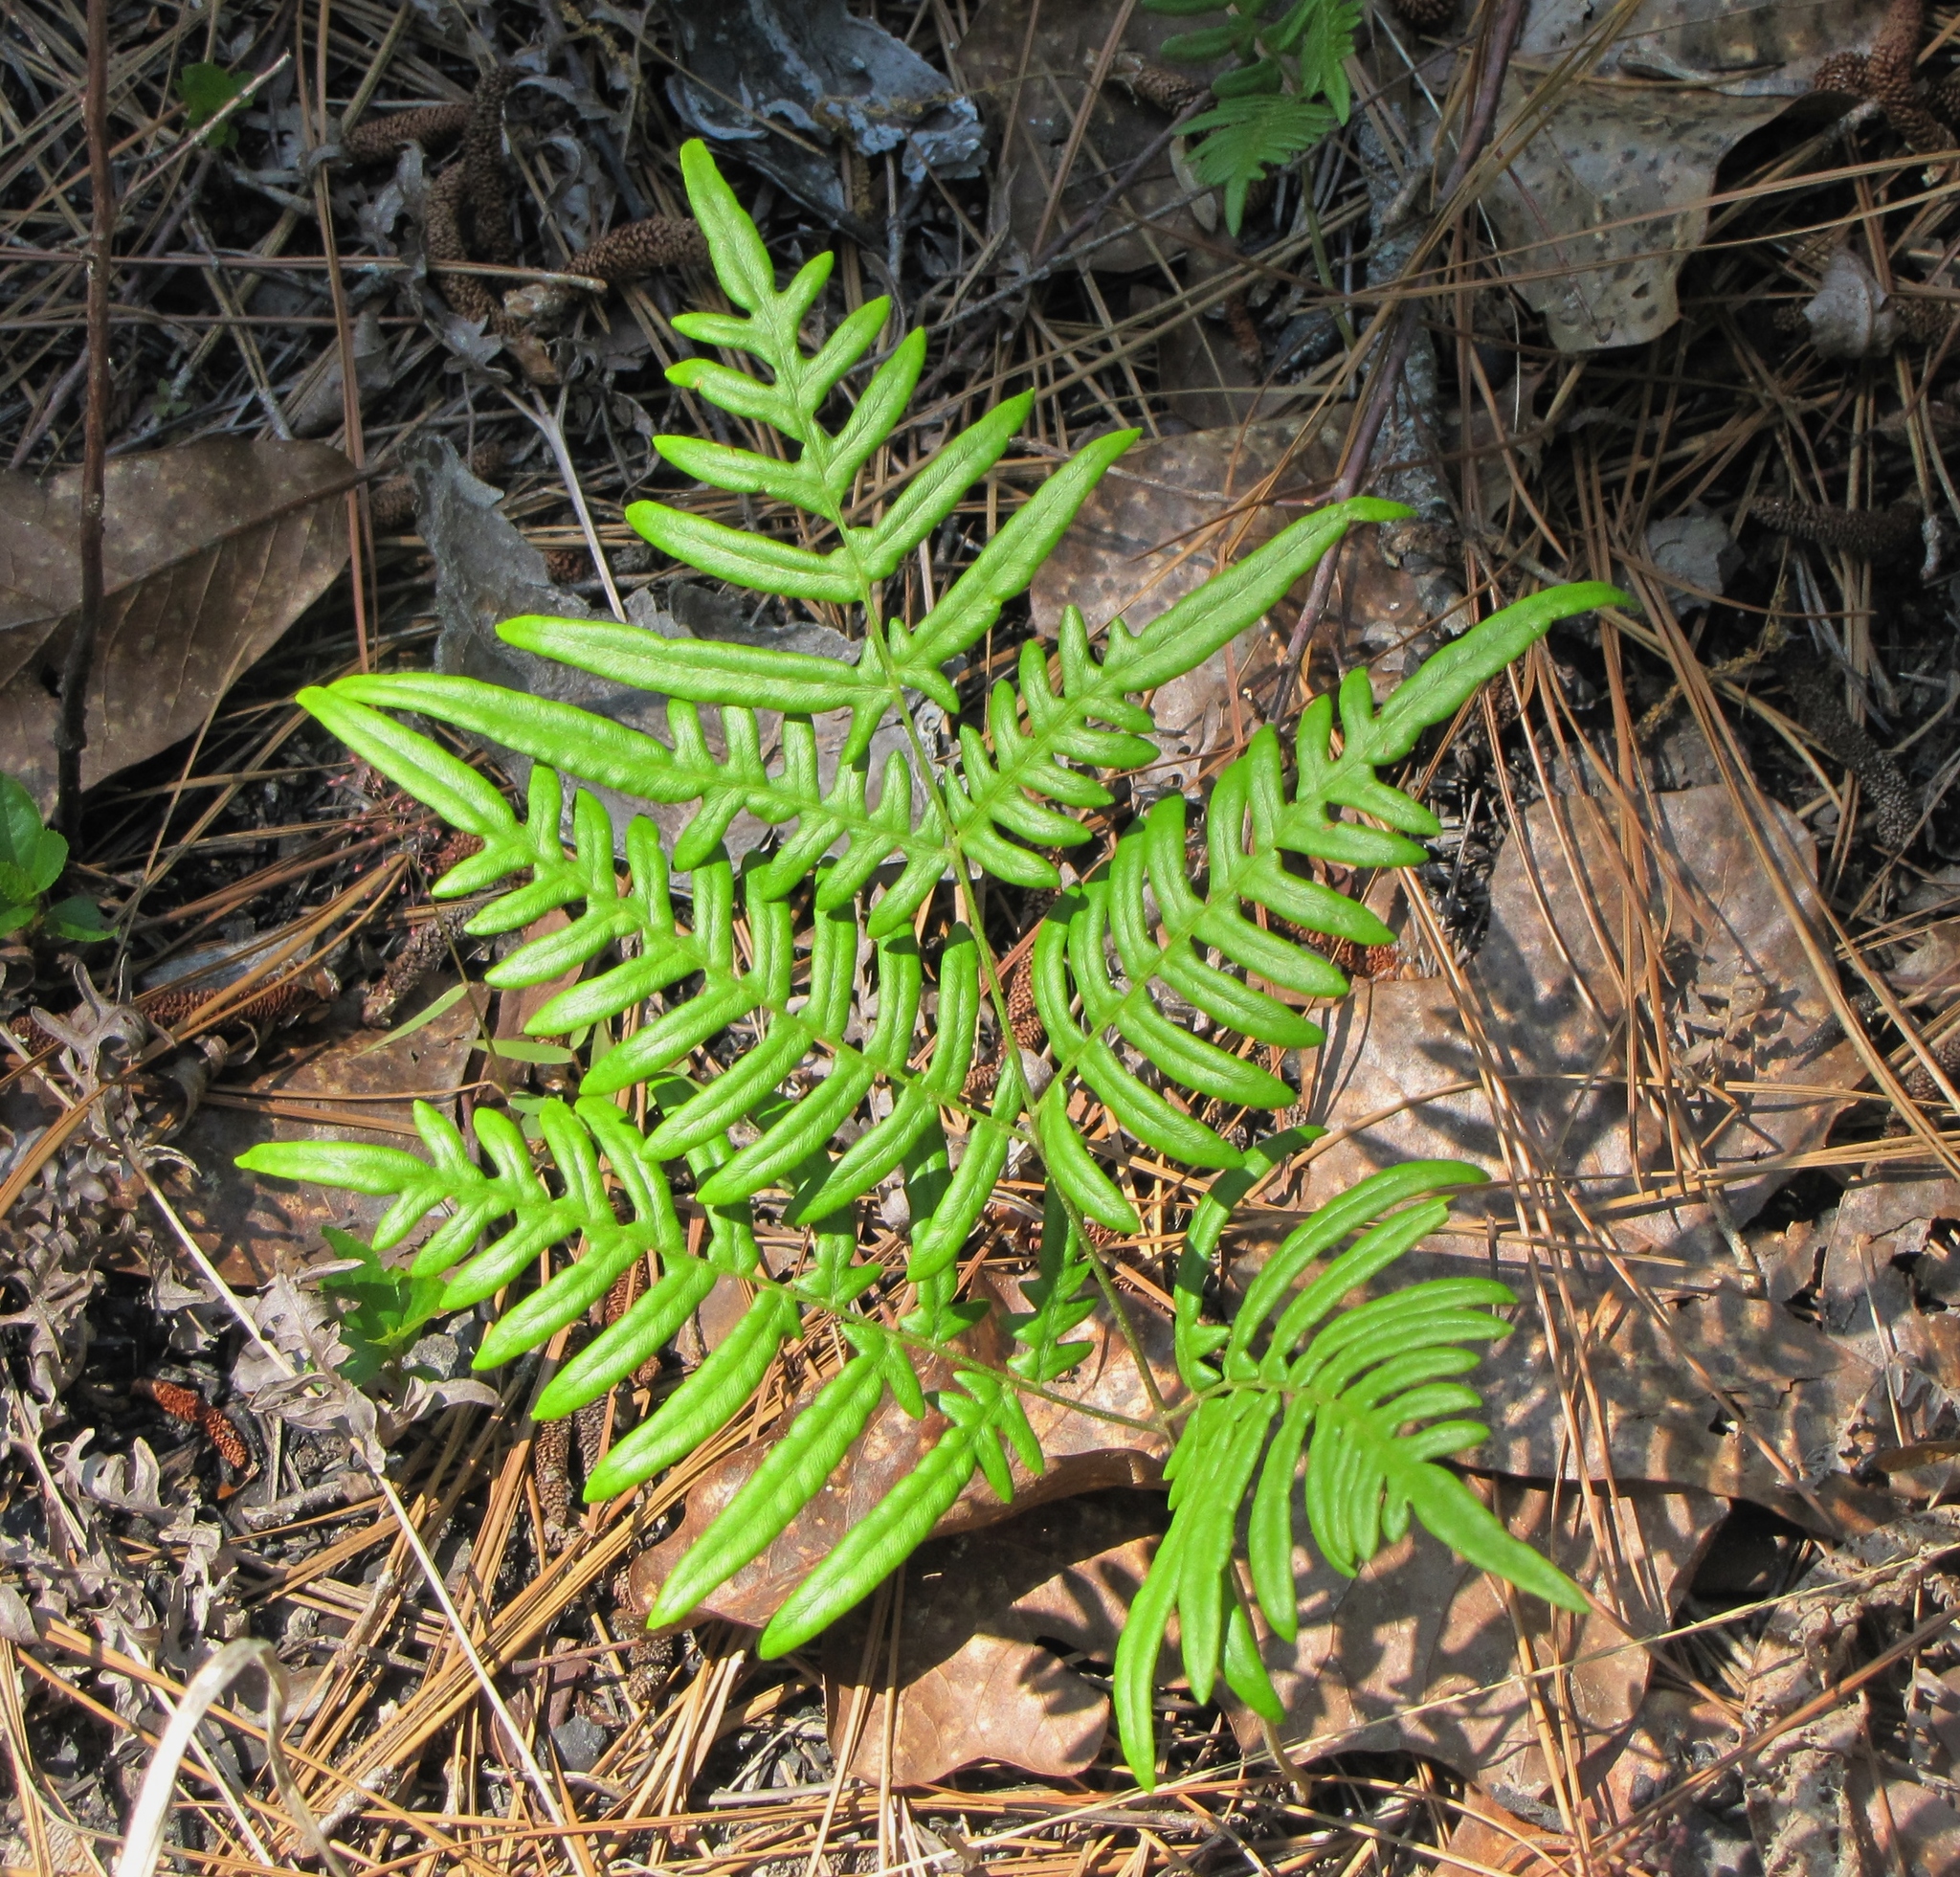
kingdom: Plantae
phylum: Tracheophyta
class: Polypodiopsida
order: Polypodiales
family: Dennstaedtiaceae
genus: Pteridium
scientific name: Pteridium aquilinum
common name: Bracken
